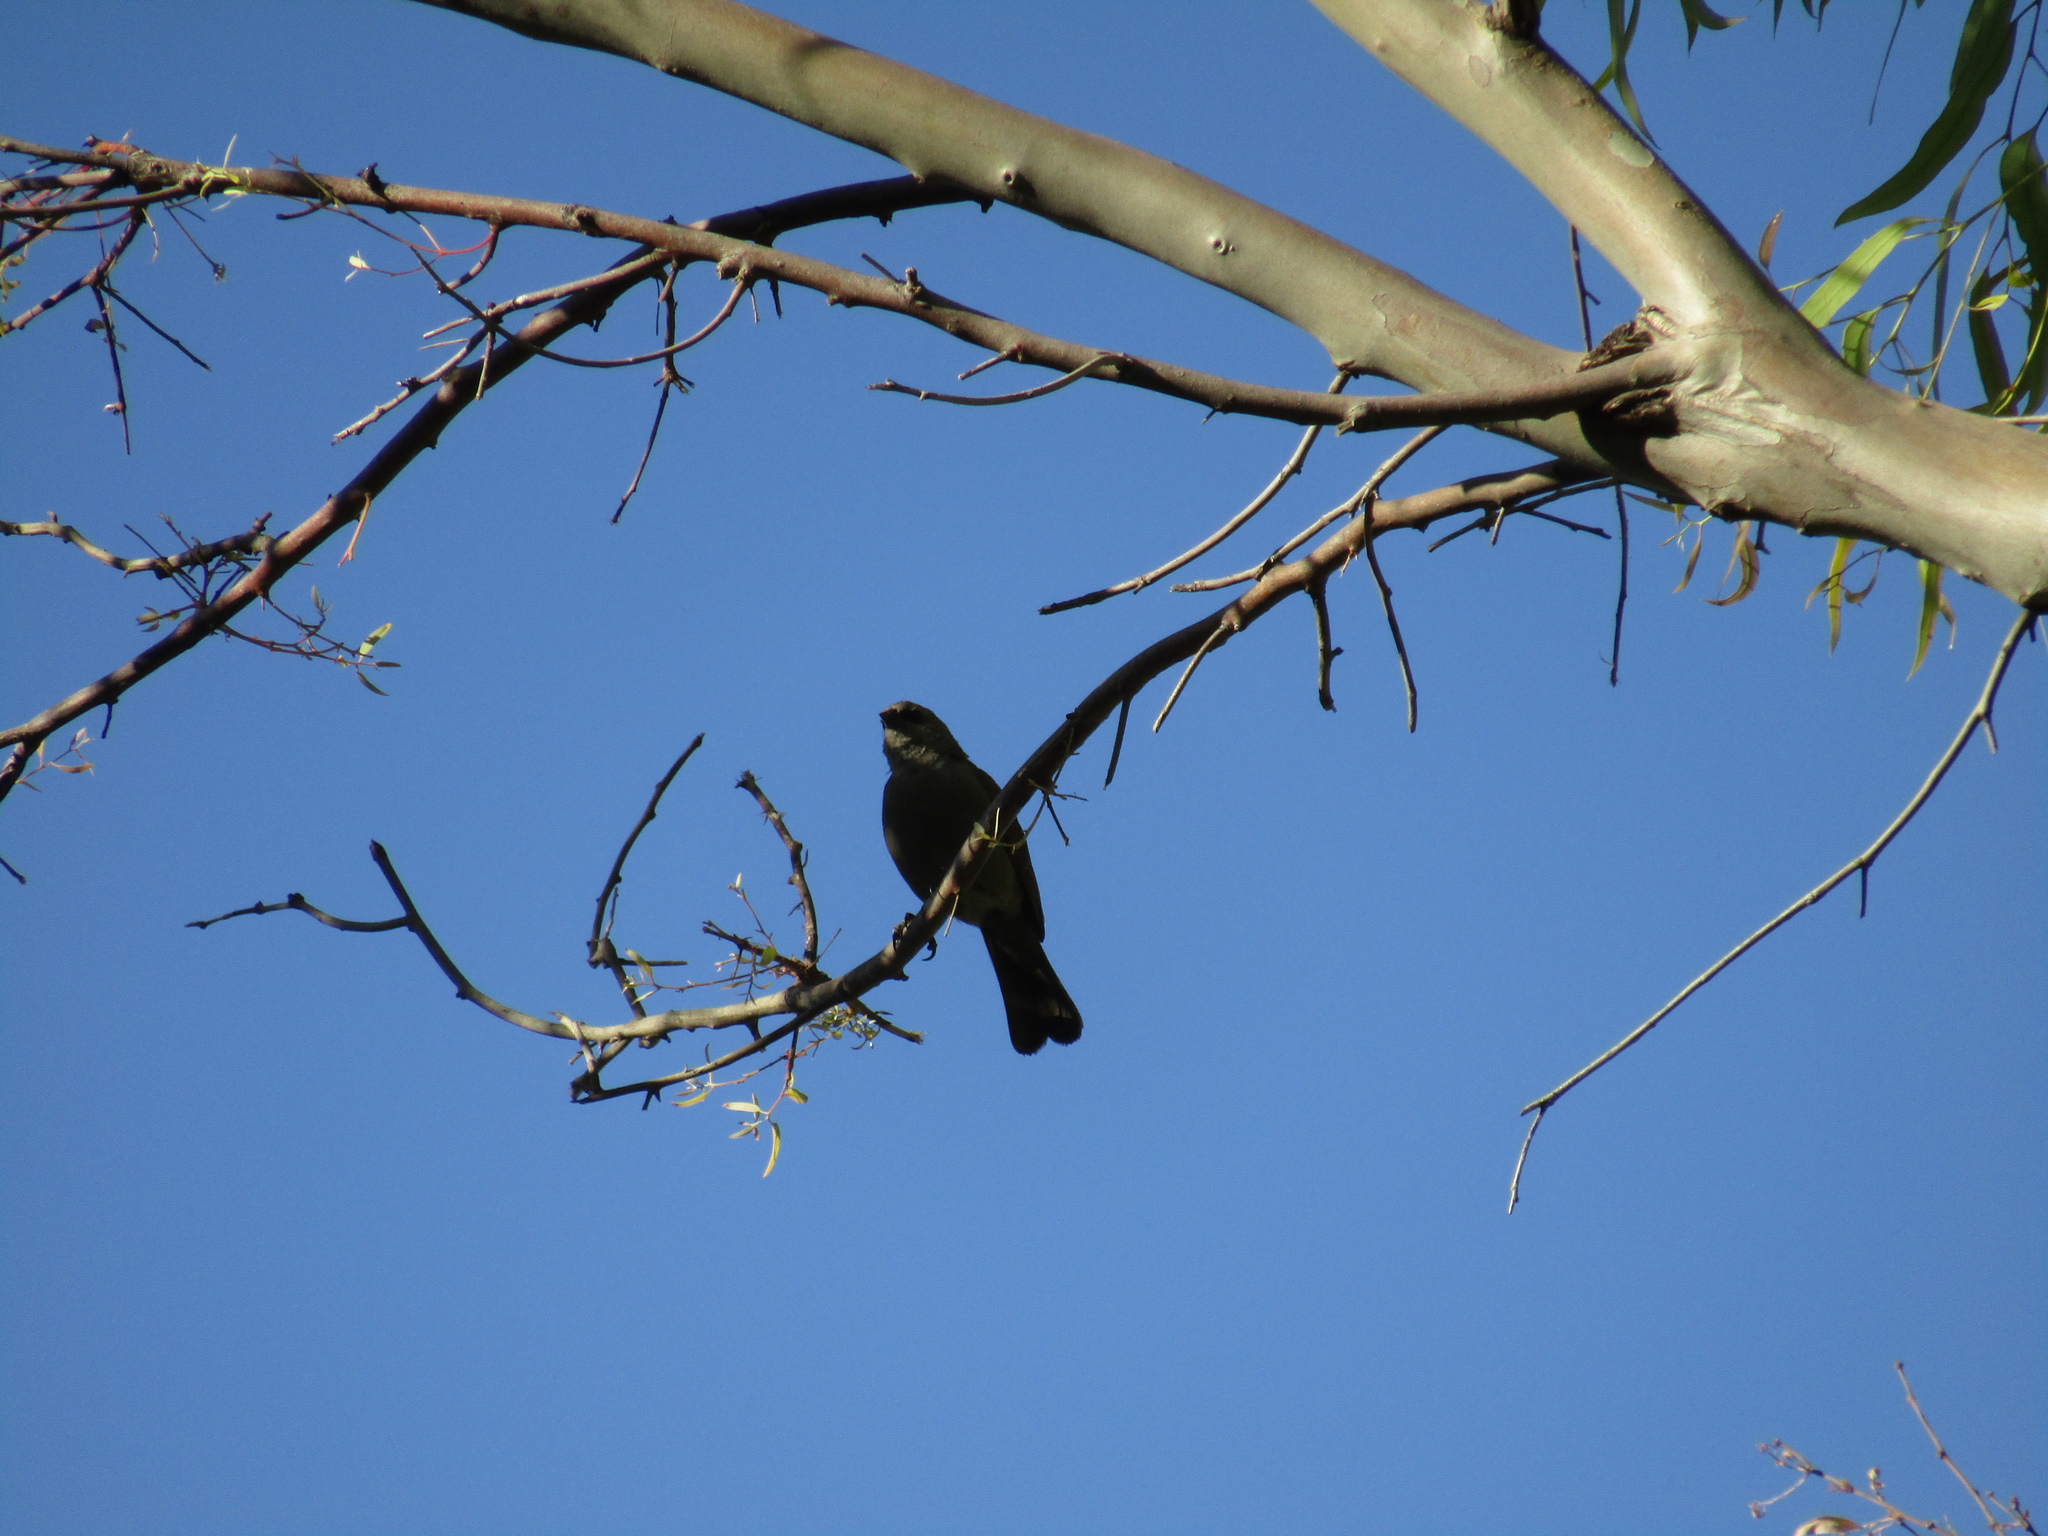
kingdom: Animalia
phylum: Chordata
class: Aves
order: Passeriformes
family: Icteridae
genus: Agelaioides
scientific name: Agelaioides badius
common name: Baywing
